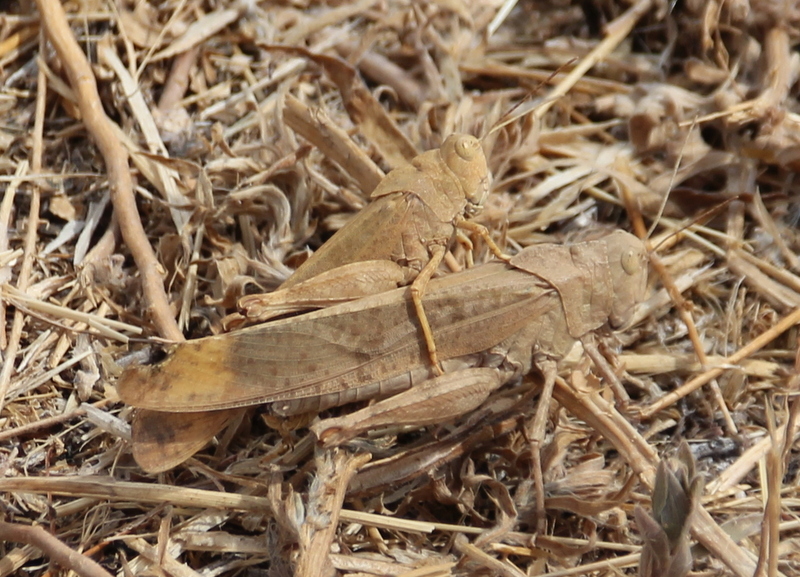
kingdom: Animalia
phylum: Arthropoda
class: Insecta
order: Orthoptera
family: Acrididae
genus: Dissosteira
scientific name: Dissosteira carolina
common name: Carolina grasshopper
